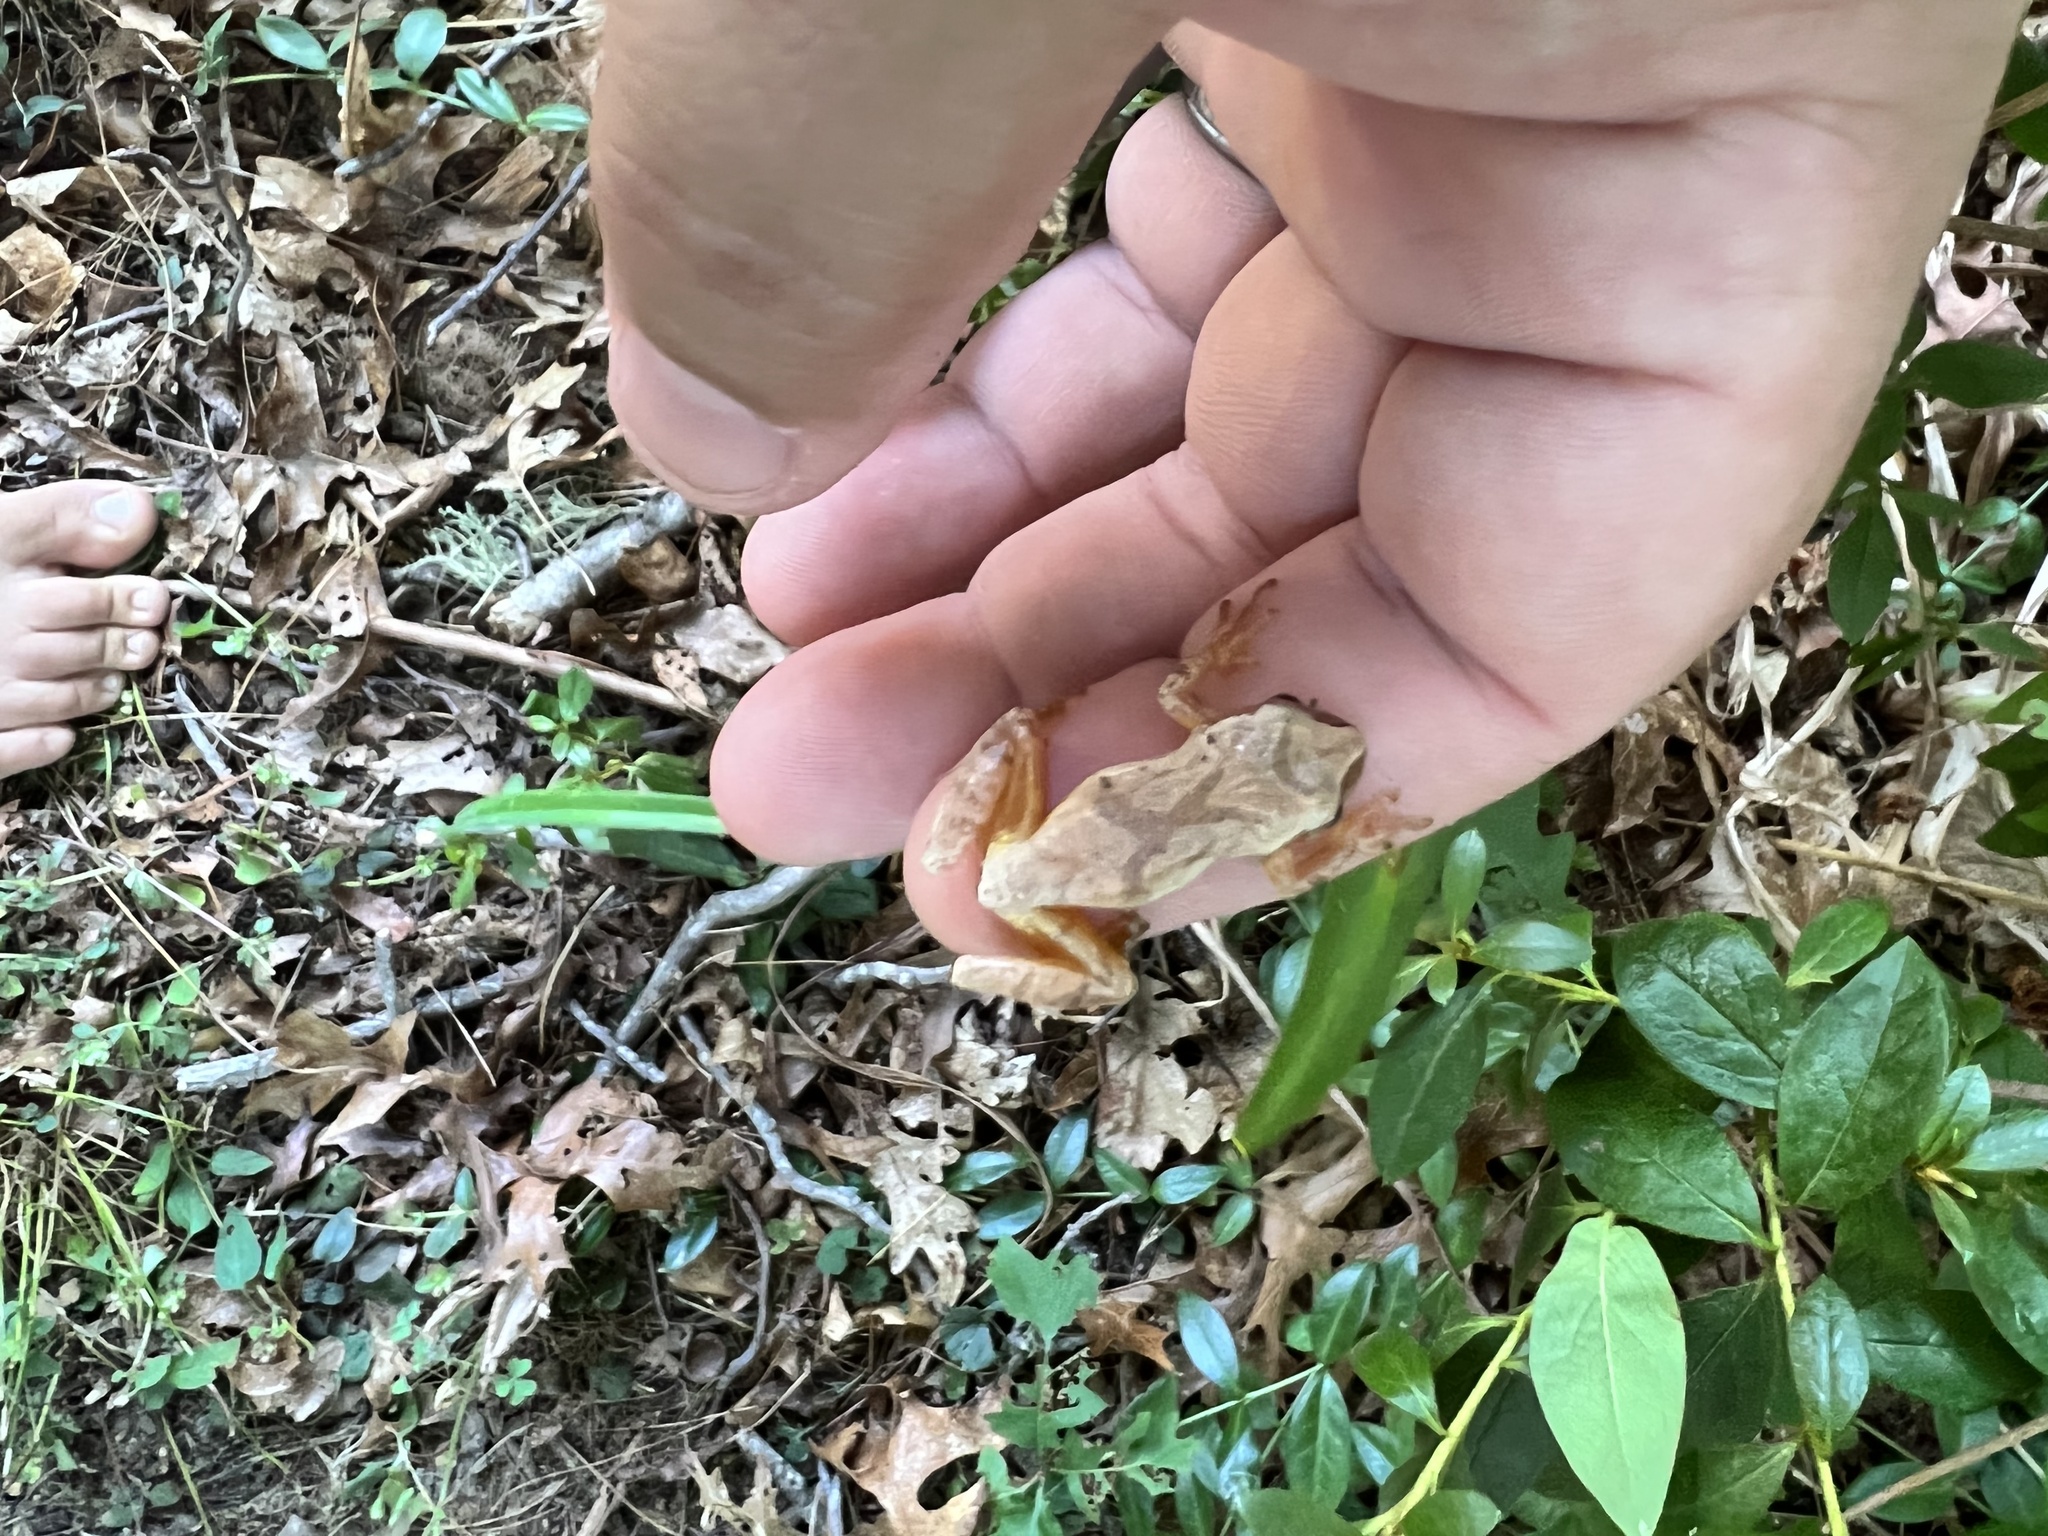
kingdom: Animalia
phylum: Chordata
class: Amphibia
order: Anura
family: Hylidae
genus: Pseudacris
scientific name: Pseudacris crucifer
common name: Spring peeper
